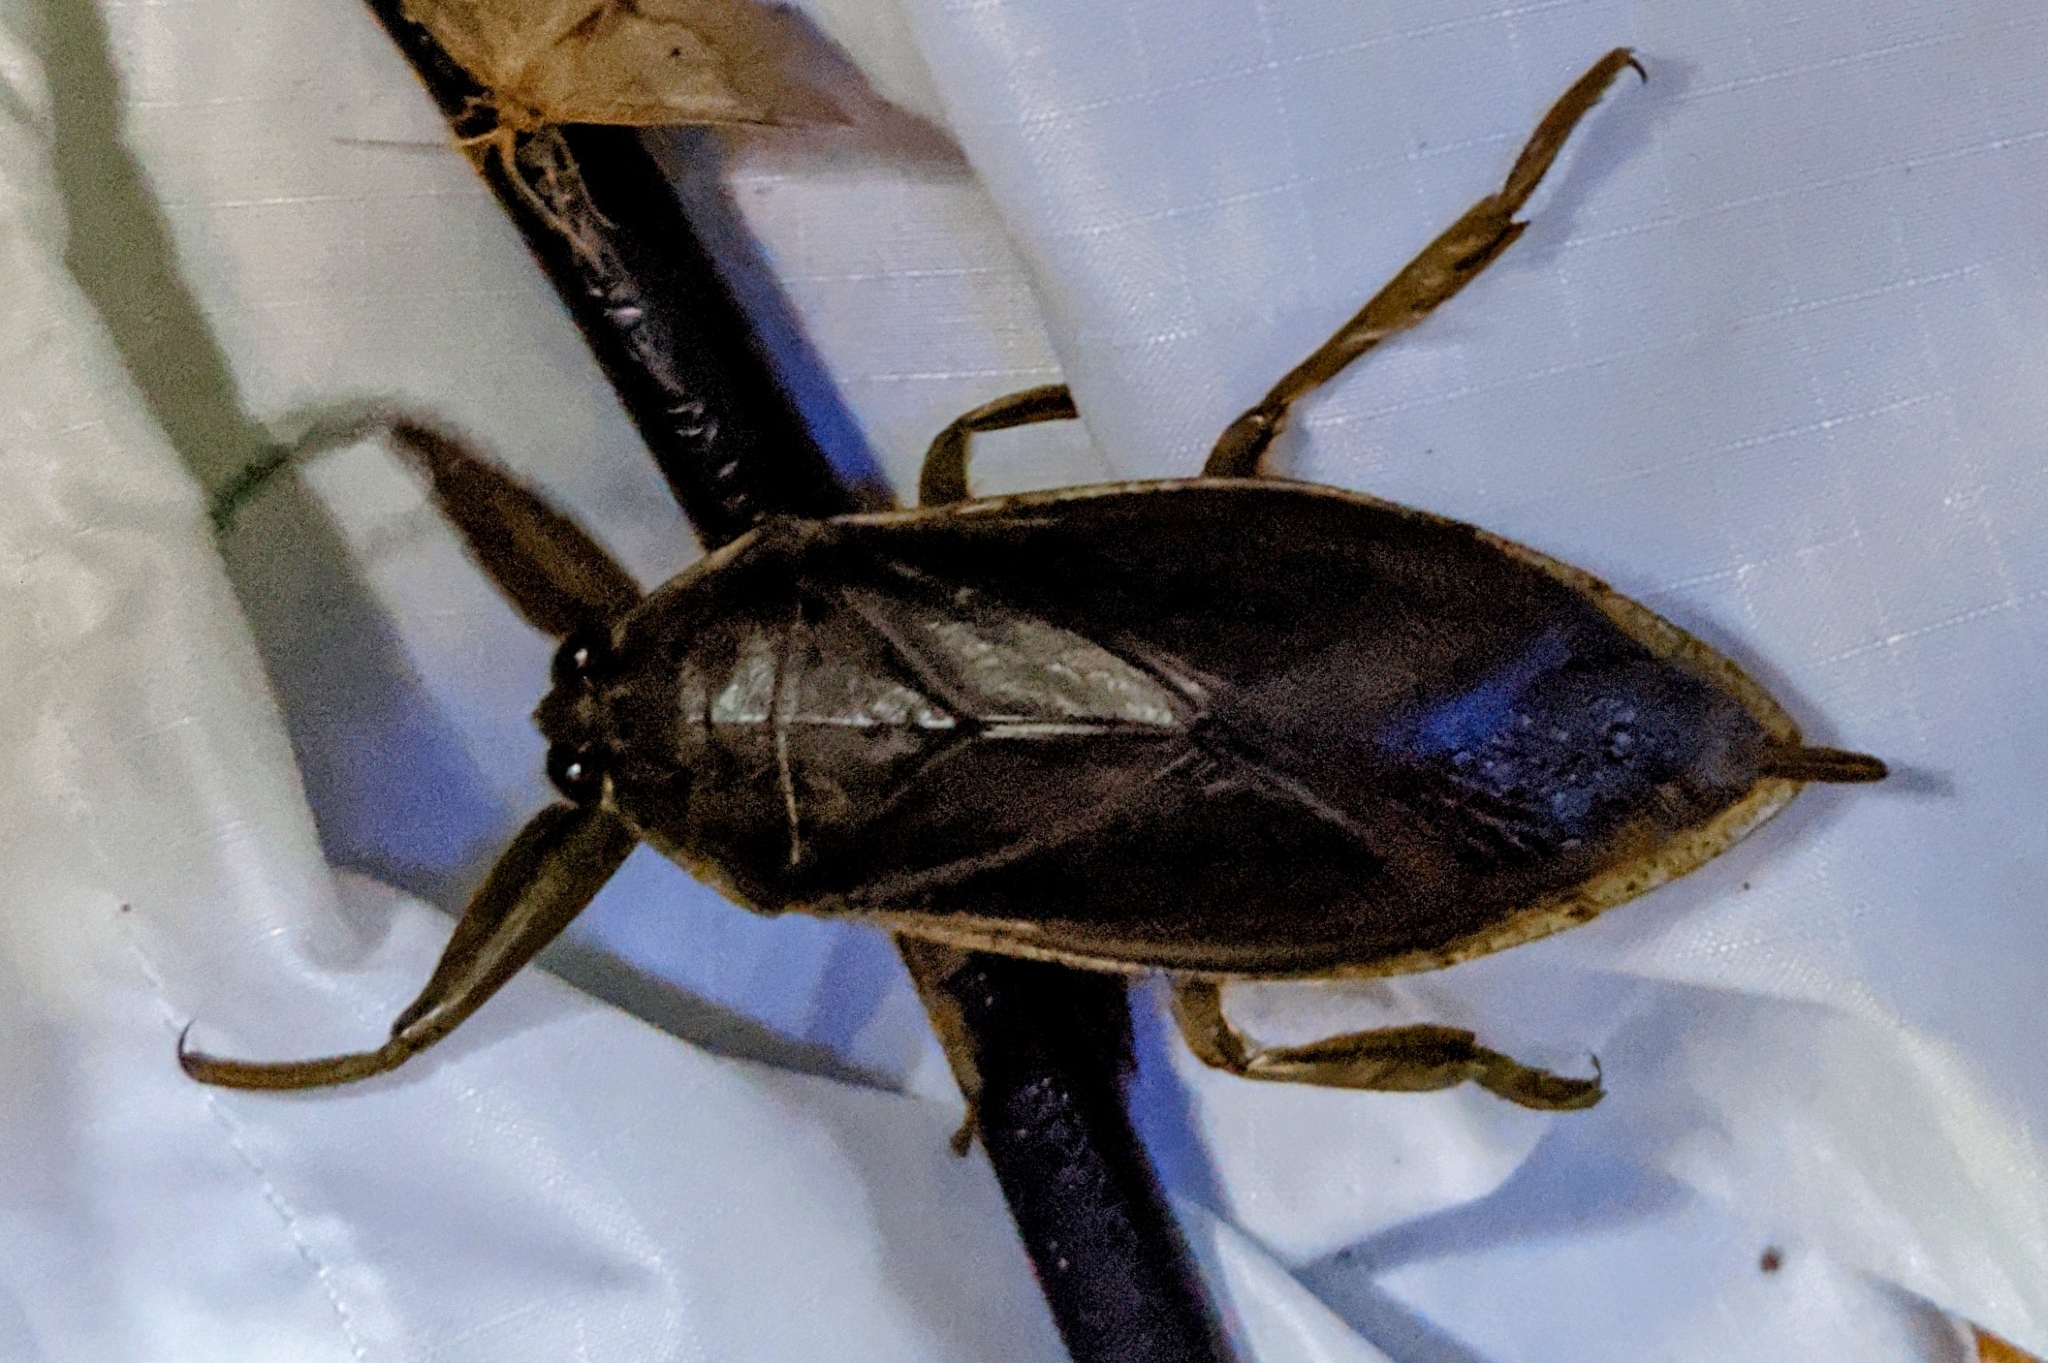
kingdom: Animalia
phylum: Arthropoda
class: Insecta
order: Hemiptera
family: Belostomatidae
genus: Lethocerus
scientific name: Lethocerus americanus
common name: Giant water bug
